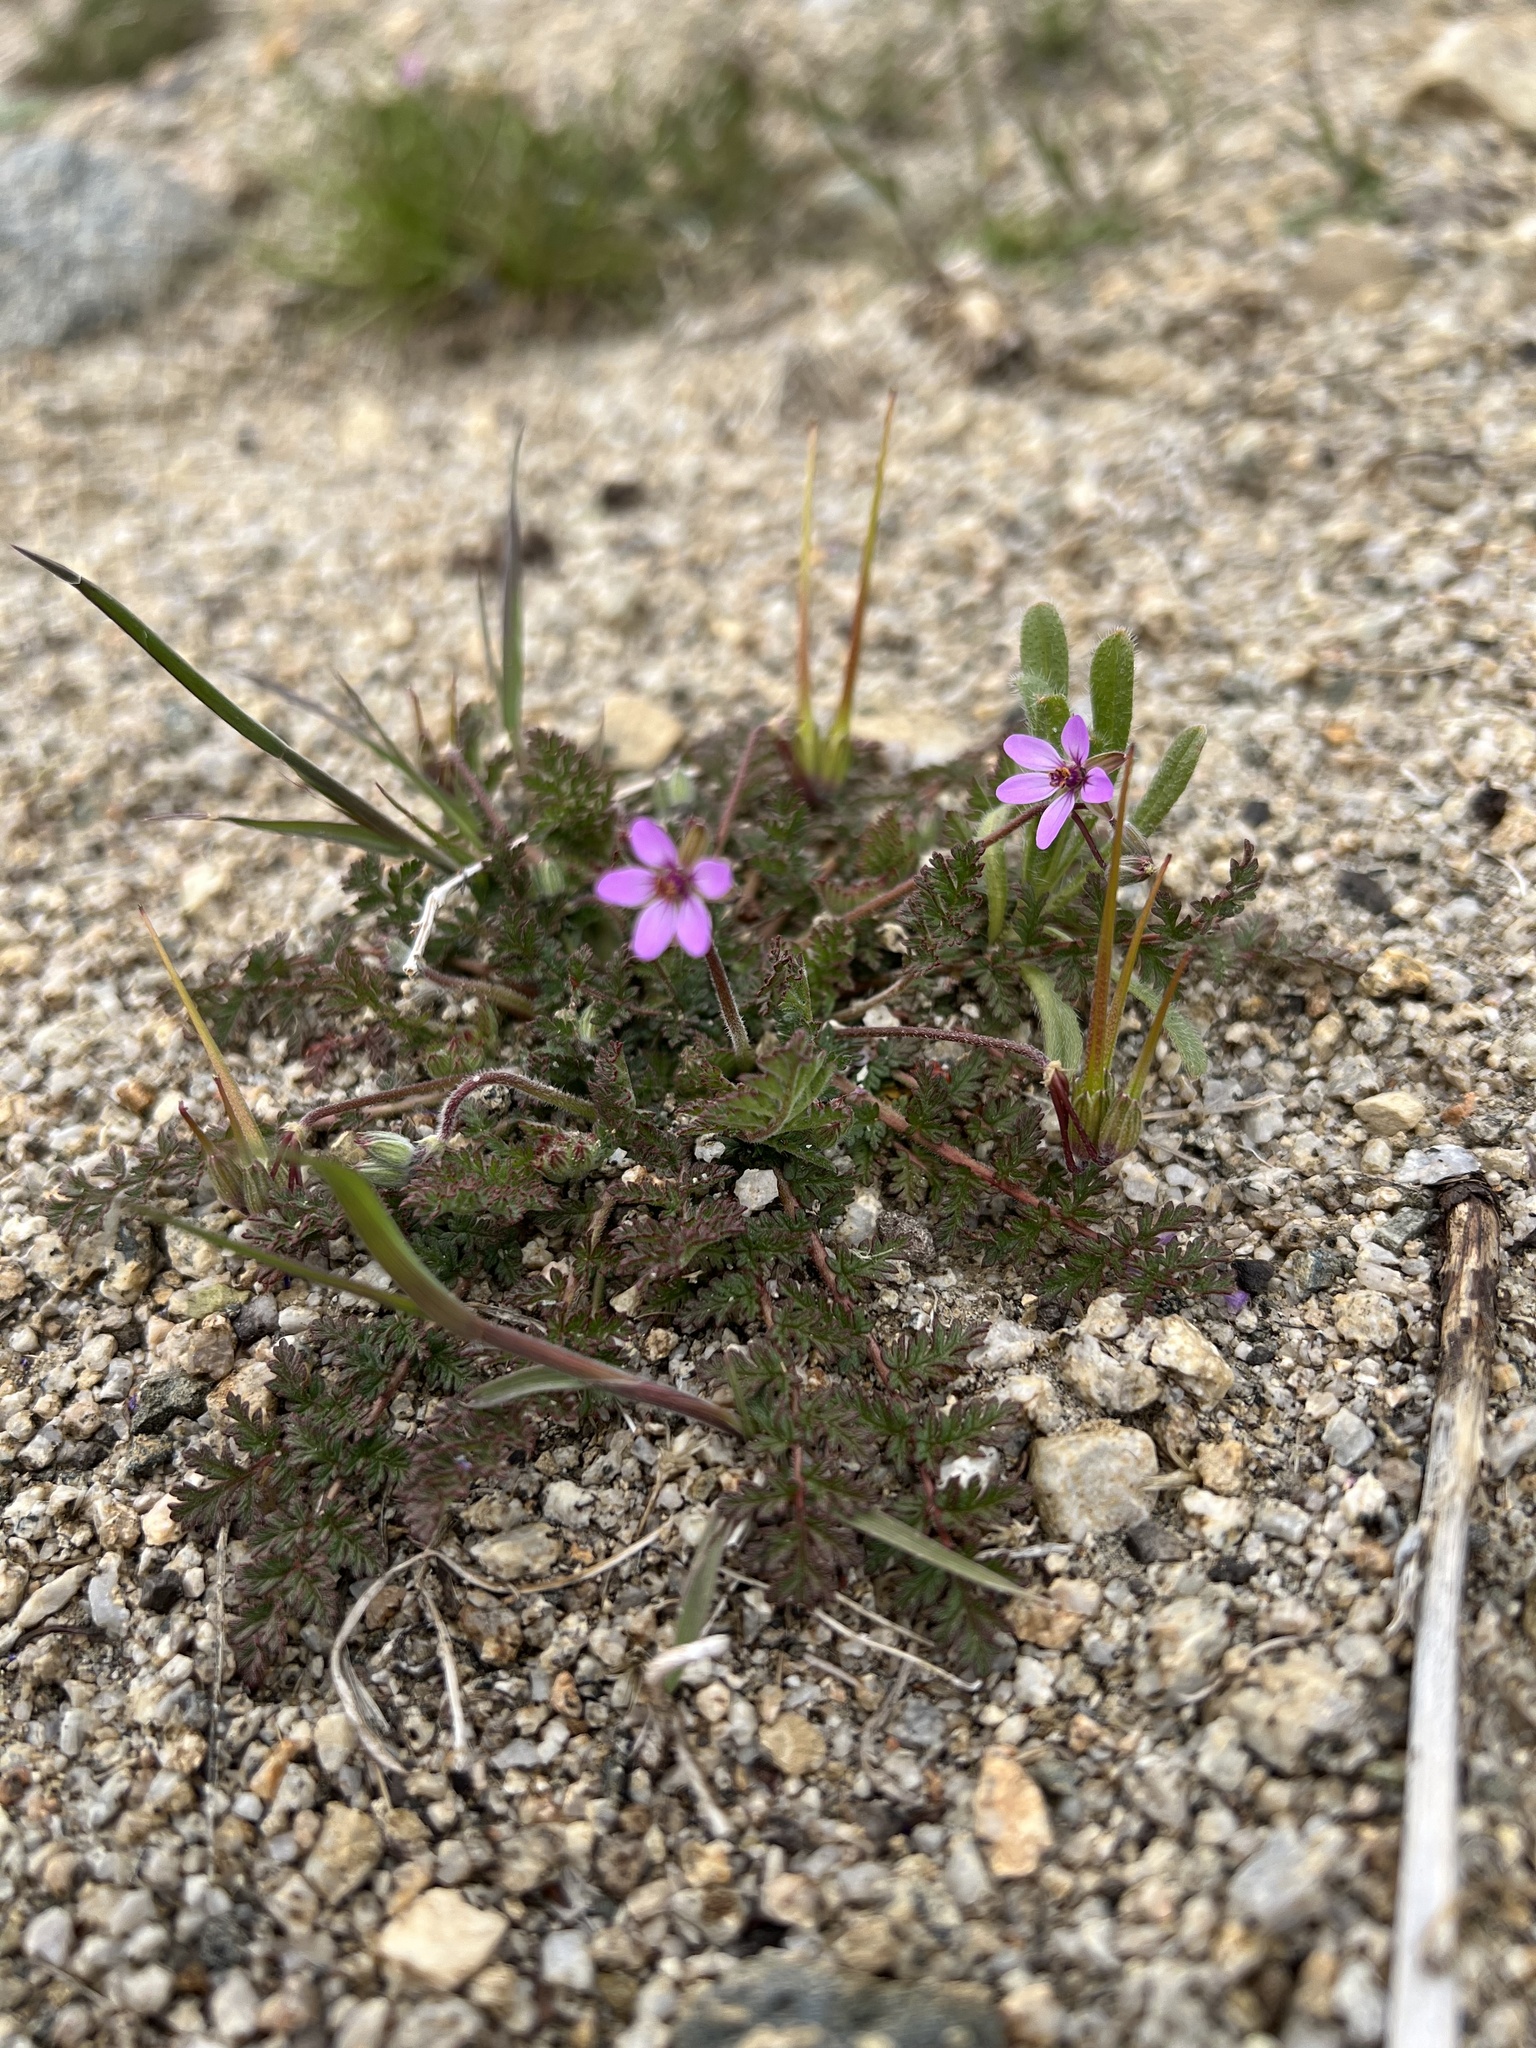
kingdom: Plantae
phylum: Tracheophyta
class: Magnoliopsida
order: Geraniales
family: Geraniaceae
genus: Erodium
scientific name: Erodium cicutarium
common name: Common stork's-bill
